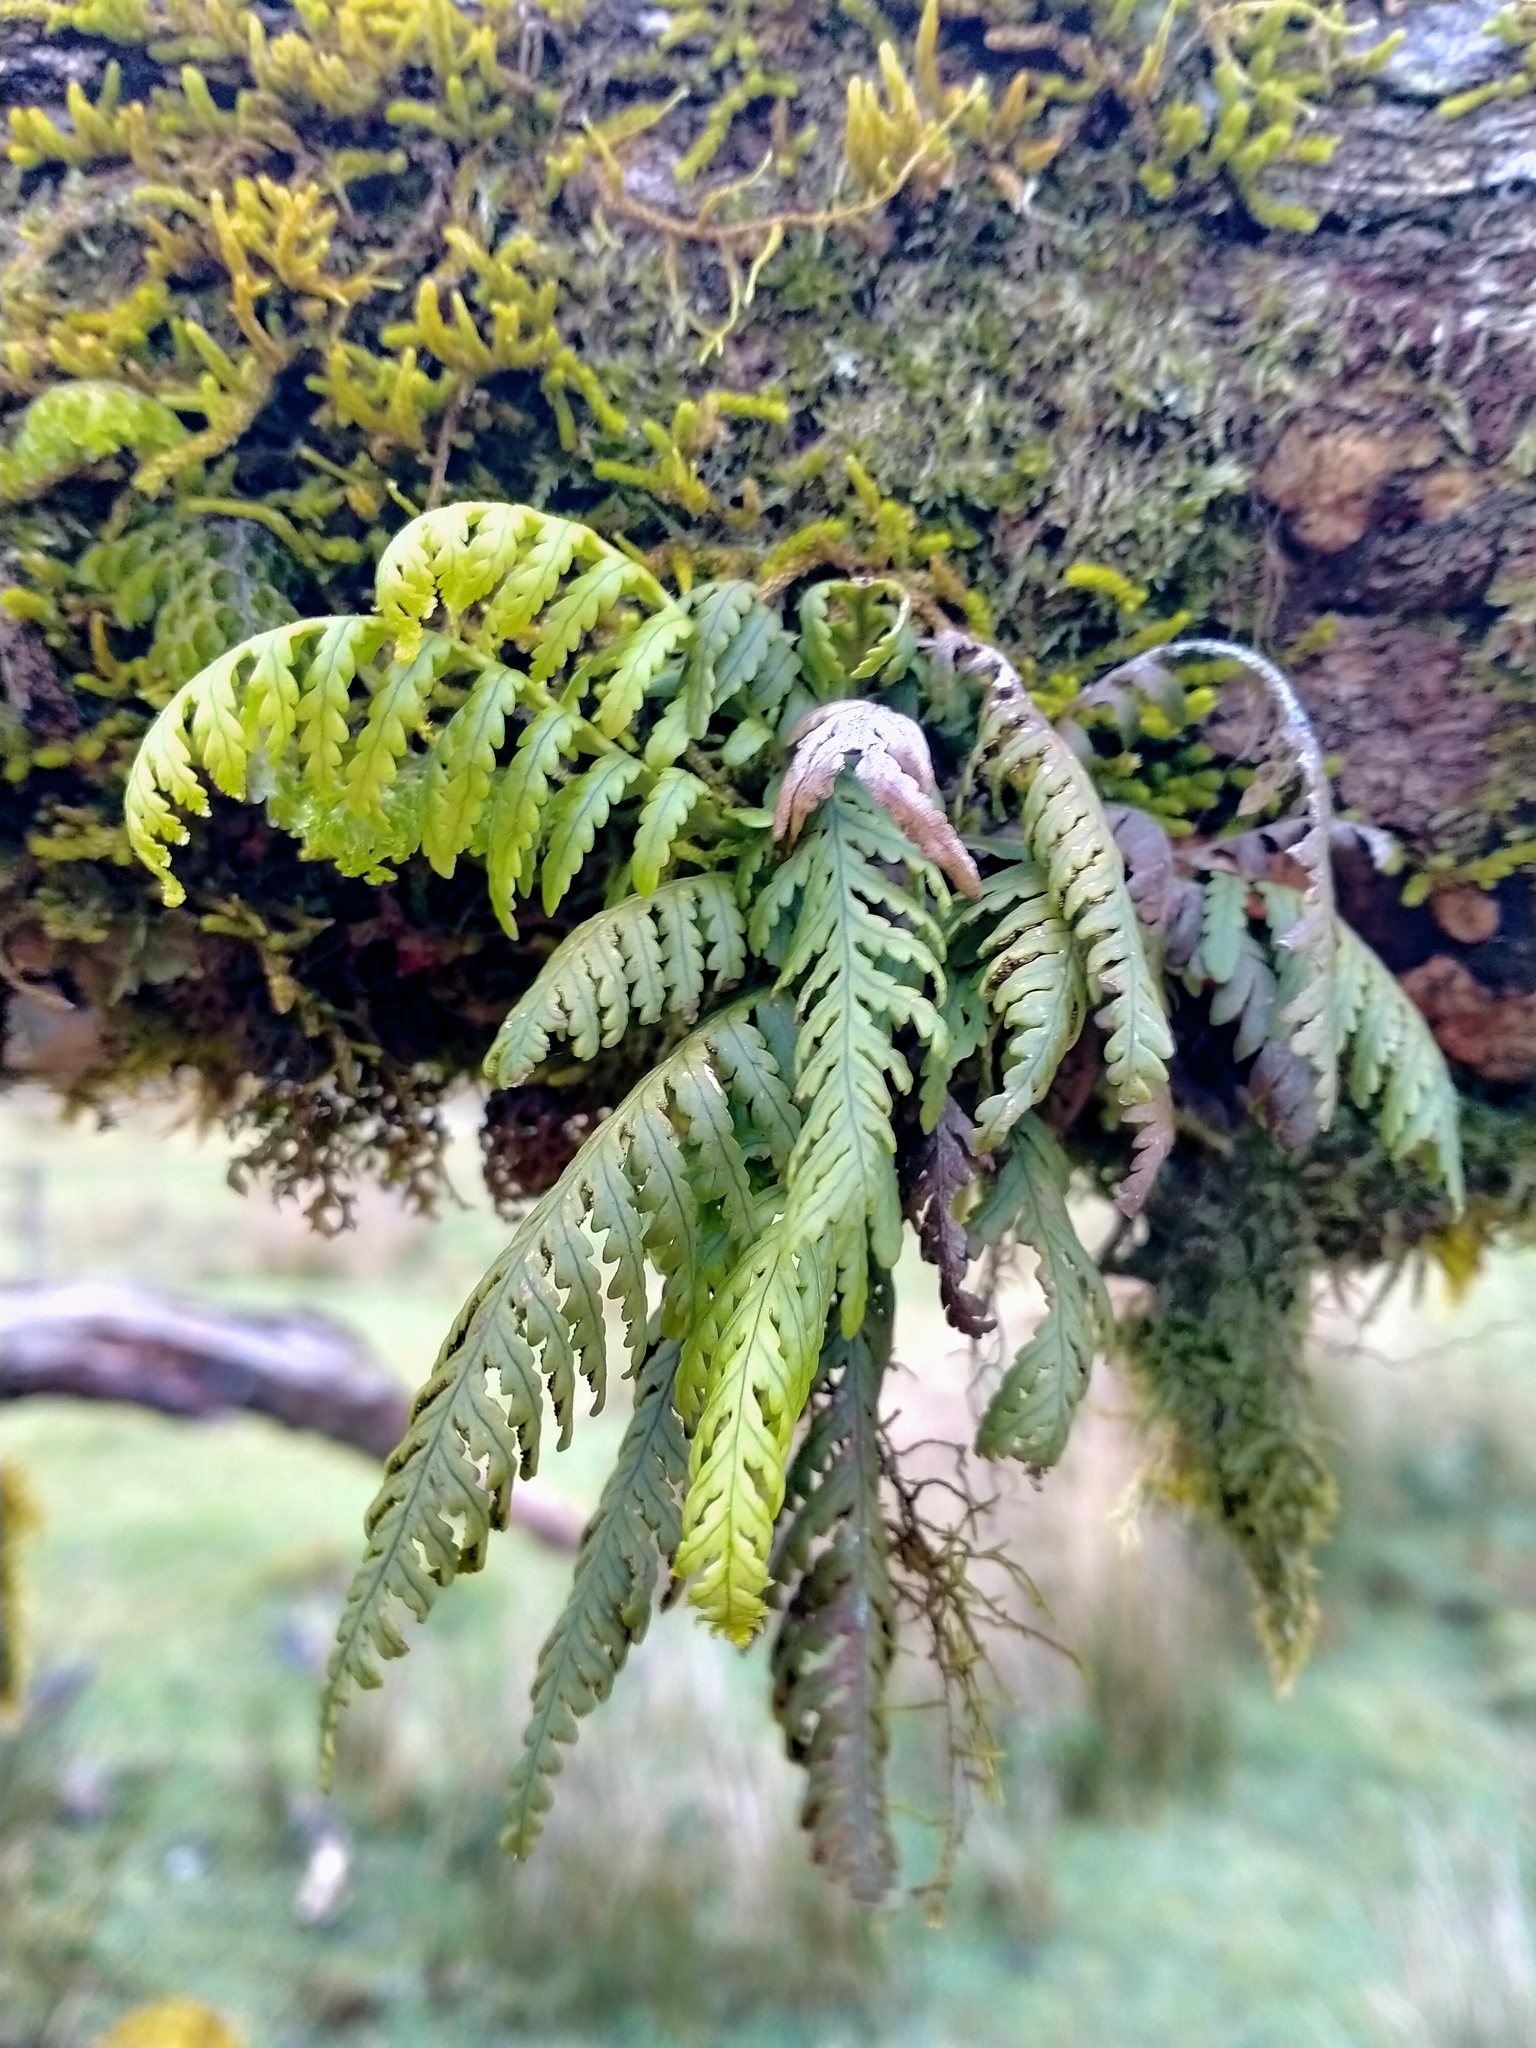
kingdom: Plantae
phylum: Tracheophyta
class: Polypodiopsida
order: Polypodiales
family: Polypodiaceae
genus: Notogrammitis
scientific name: Notogrammitis heterophylla
